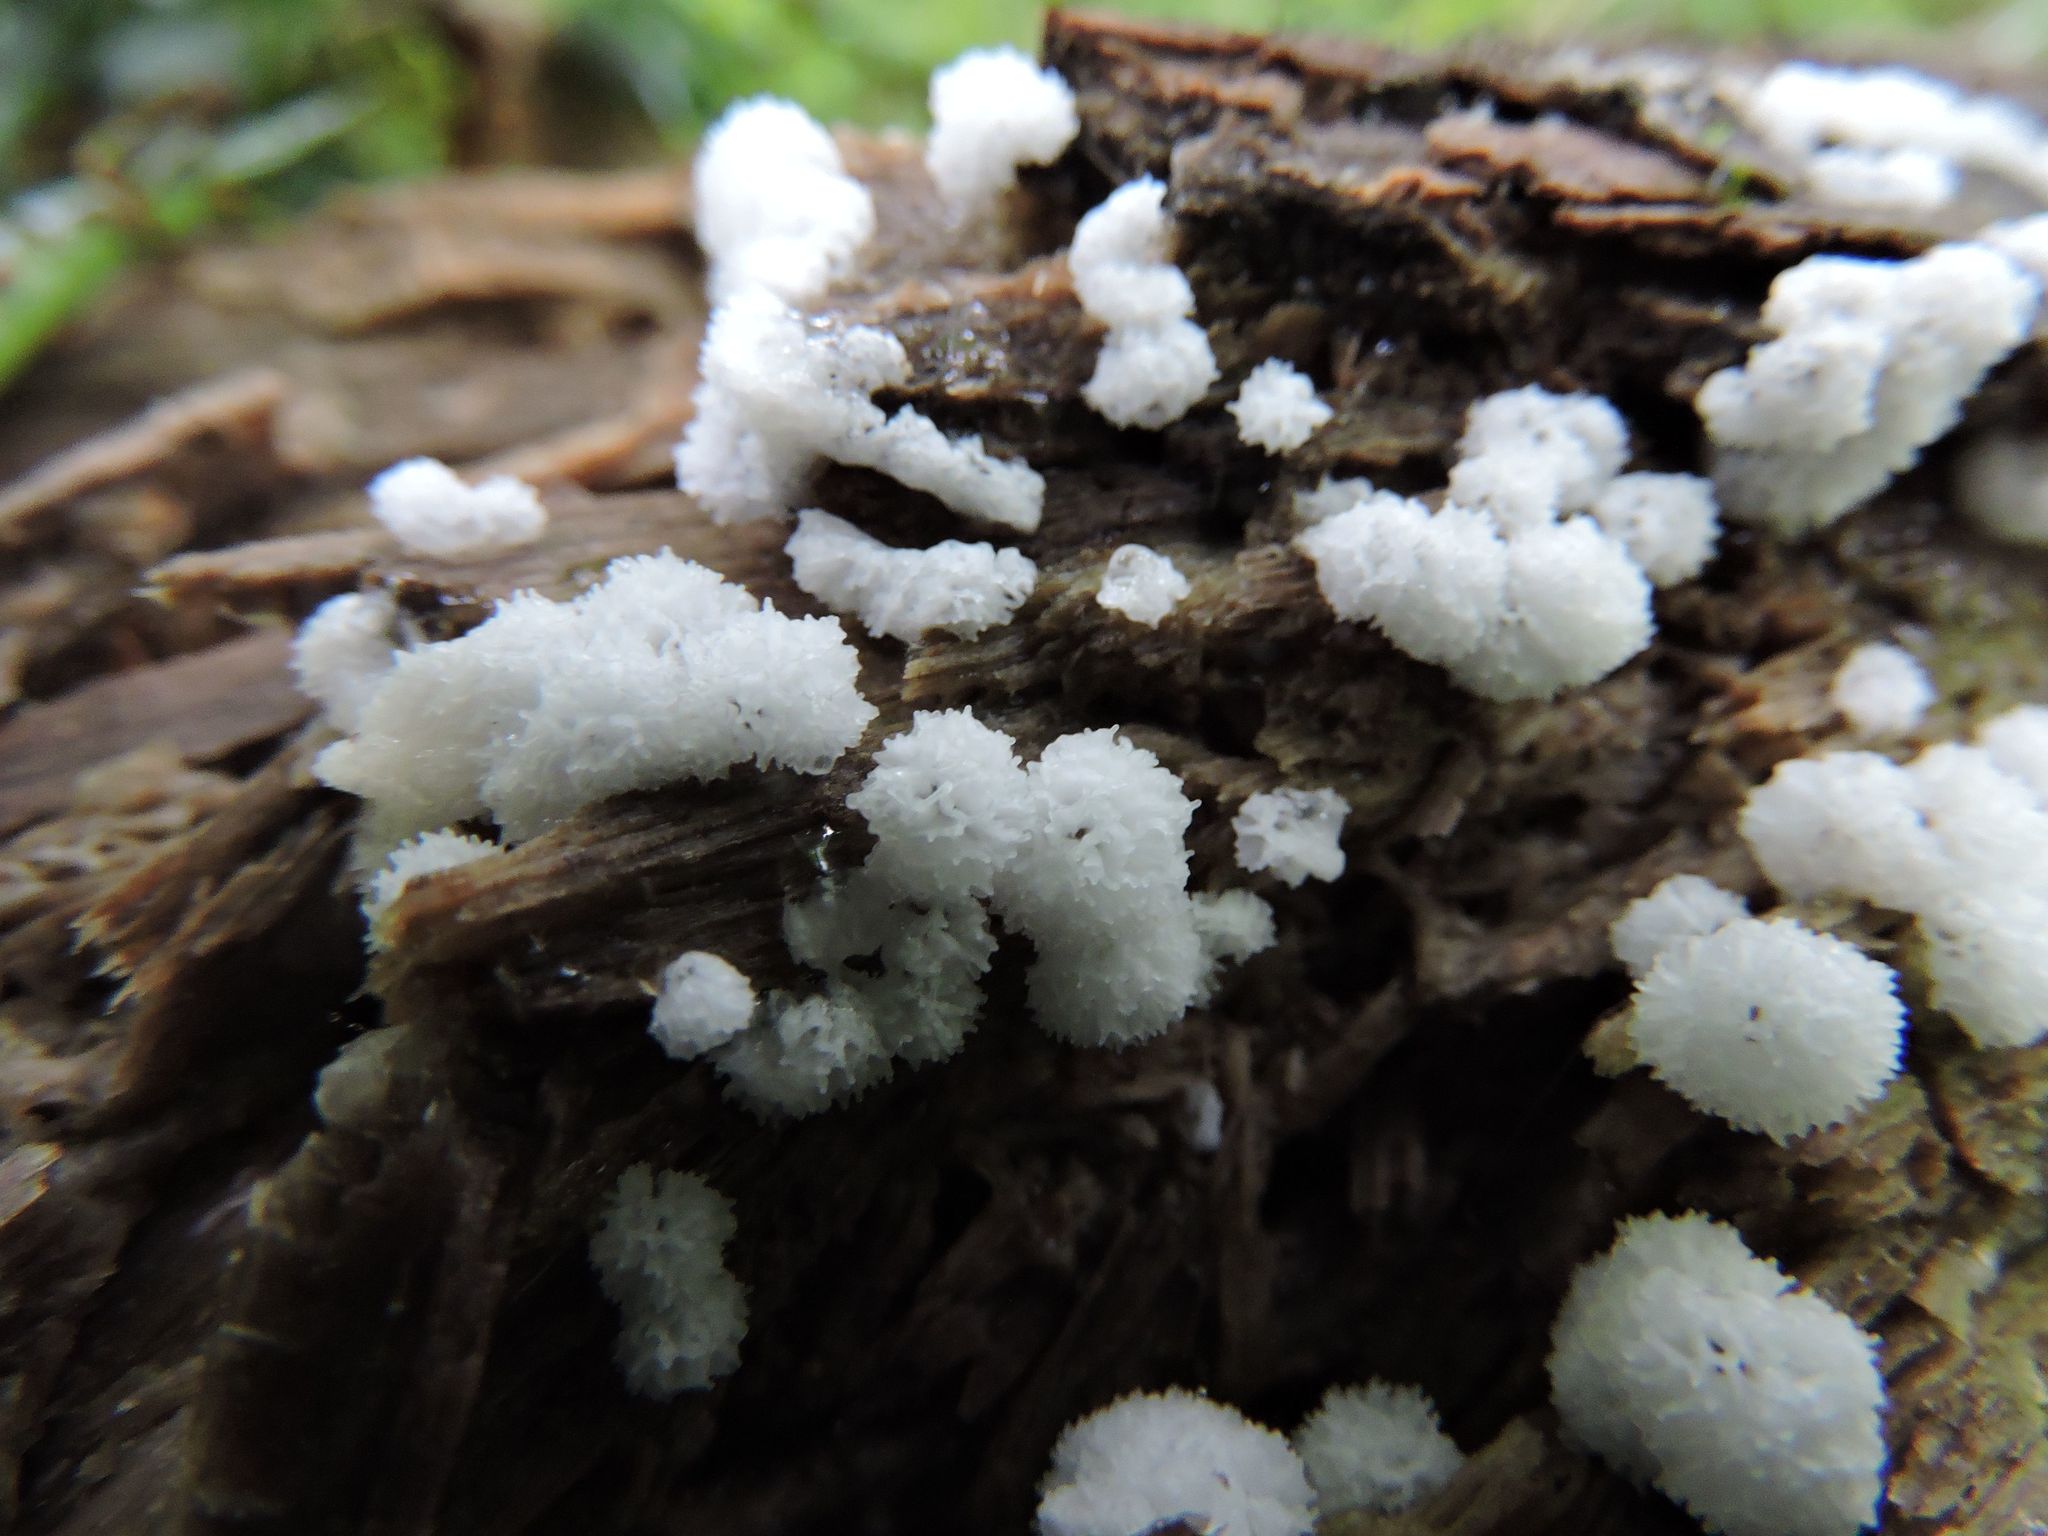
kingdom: Protozoa
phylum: Mycetozoa
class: Protosteliomycetes
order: Ceratiomyxales
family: Ceratiomyxaceae
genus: Ceratiomyxa
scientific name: Ceratiomyxa fruticulosa
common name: Honeycomb coral slime mold
